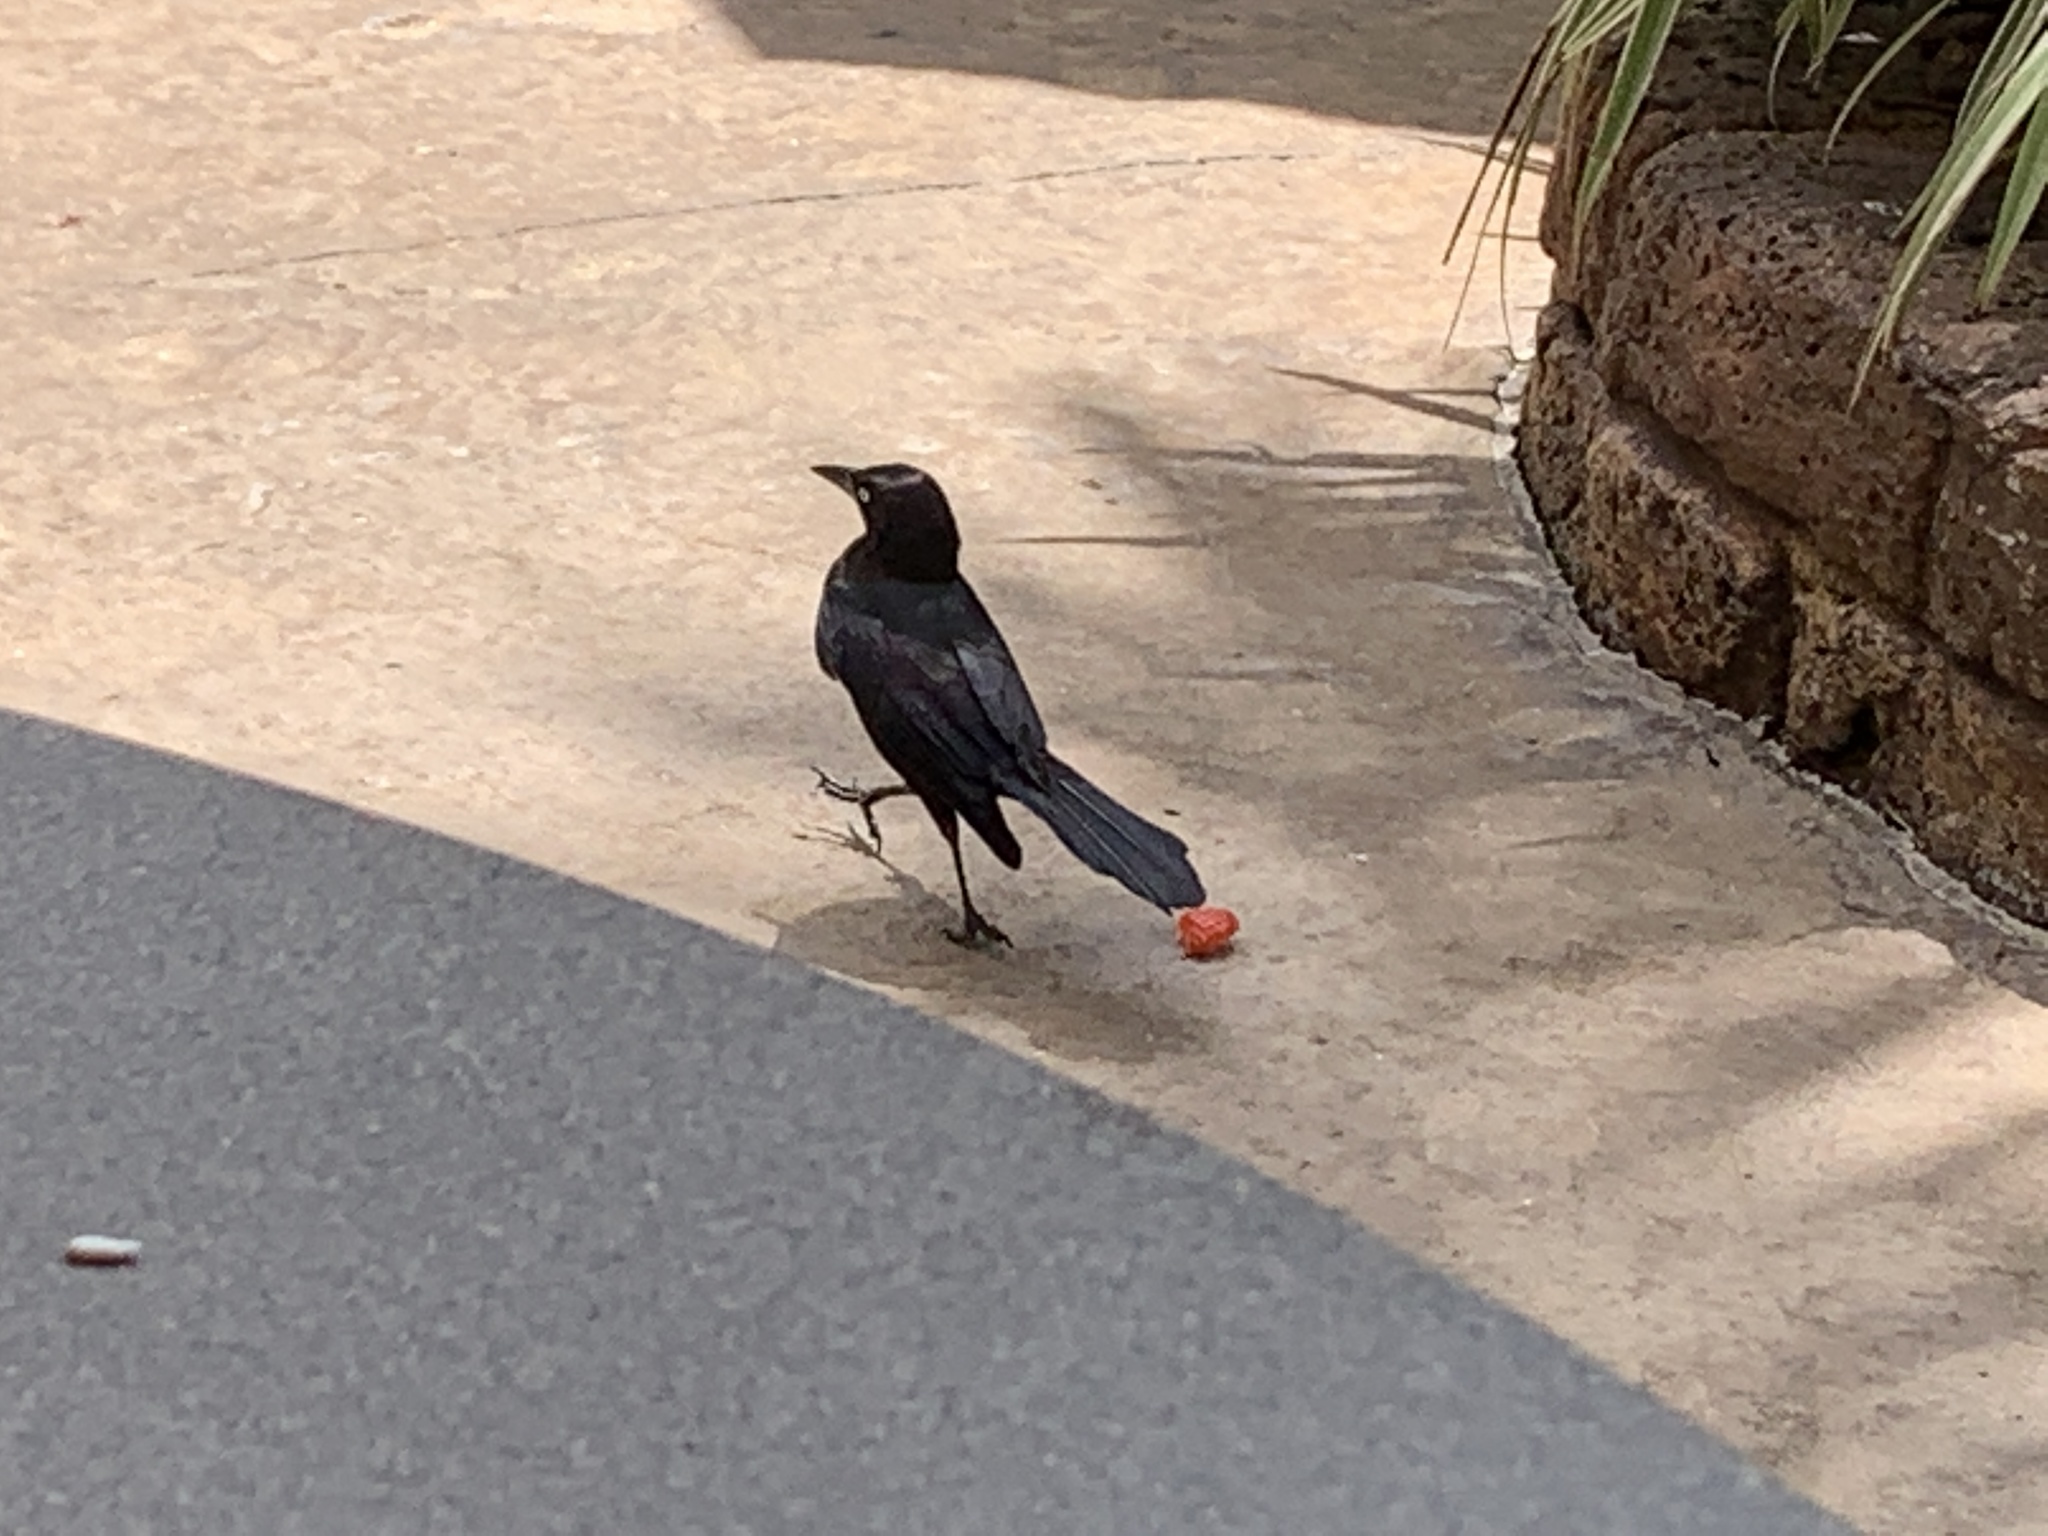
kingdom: Animalia
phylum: Chordata
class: Aves
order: Passeriformes
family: Icteridae
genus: Quiscalus
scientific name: Quiscalus quiscula
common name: Common grackle
